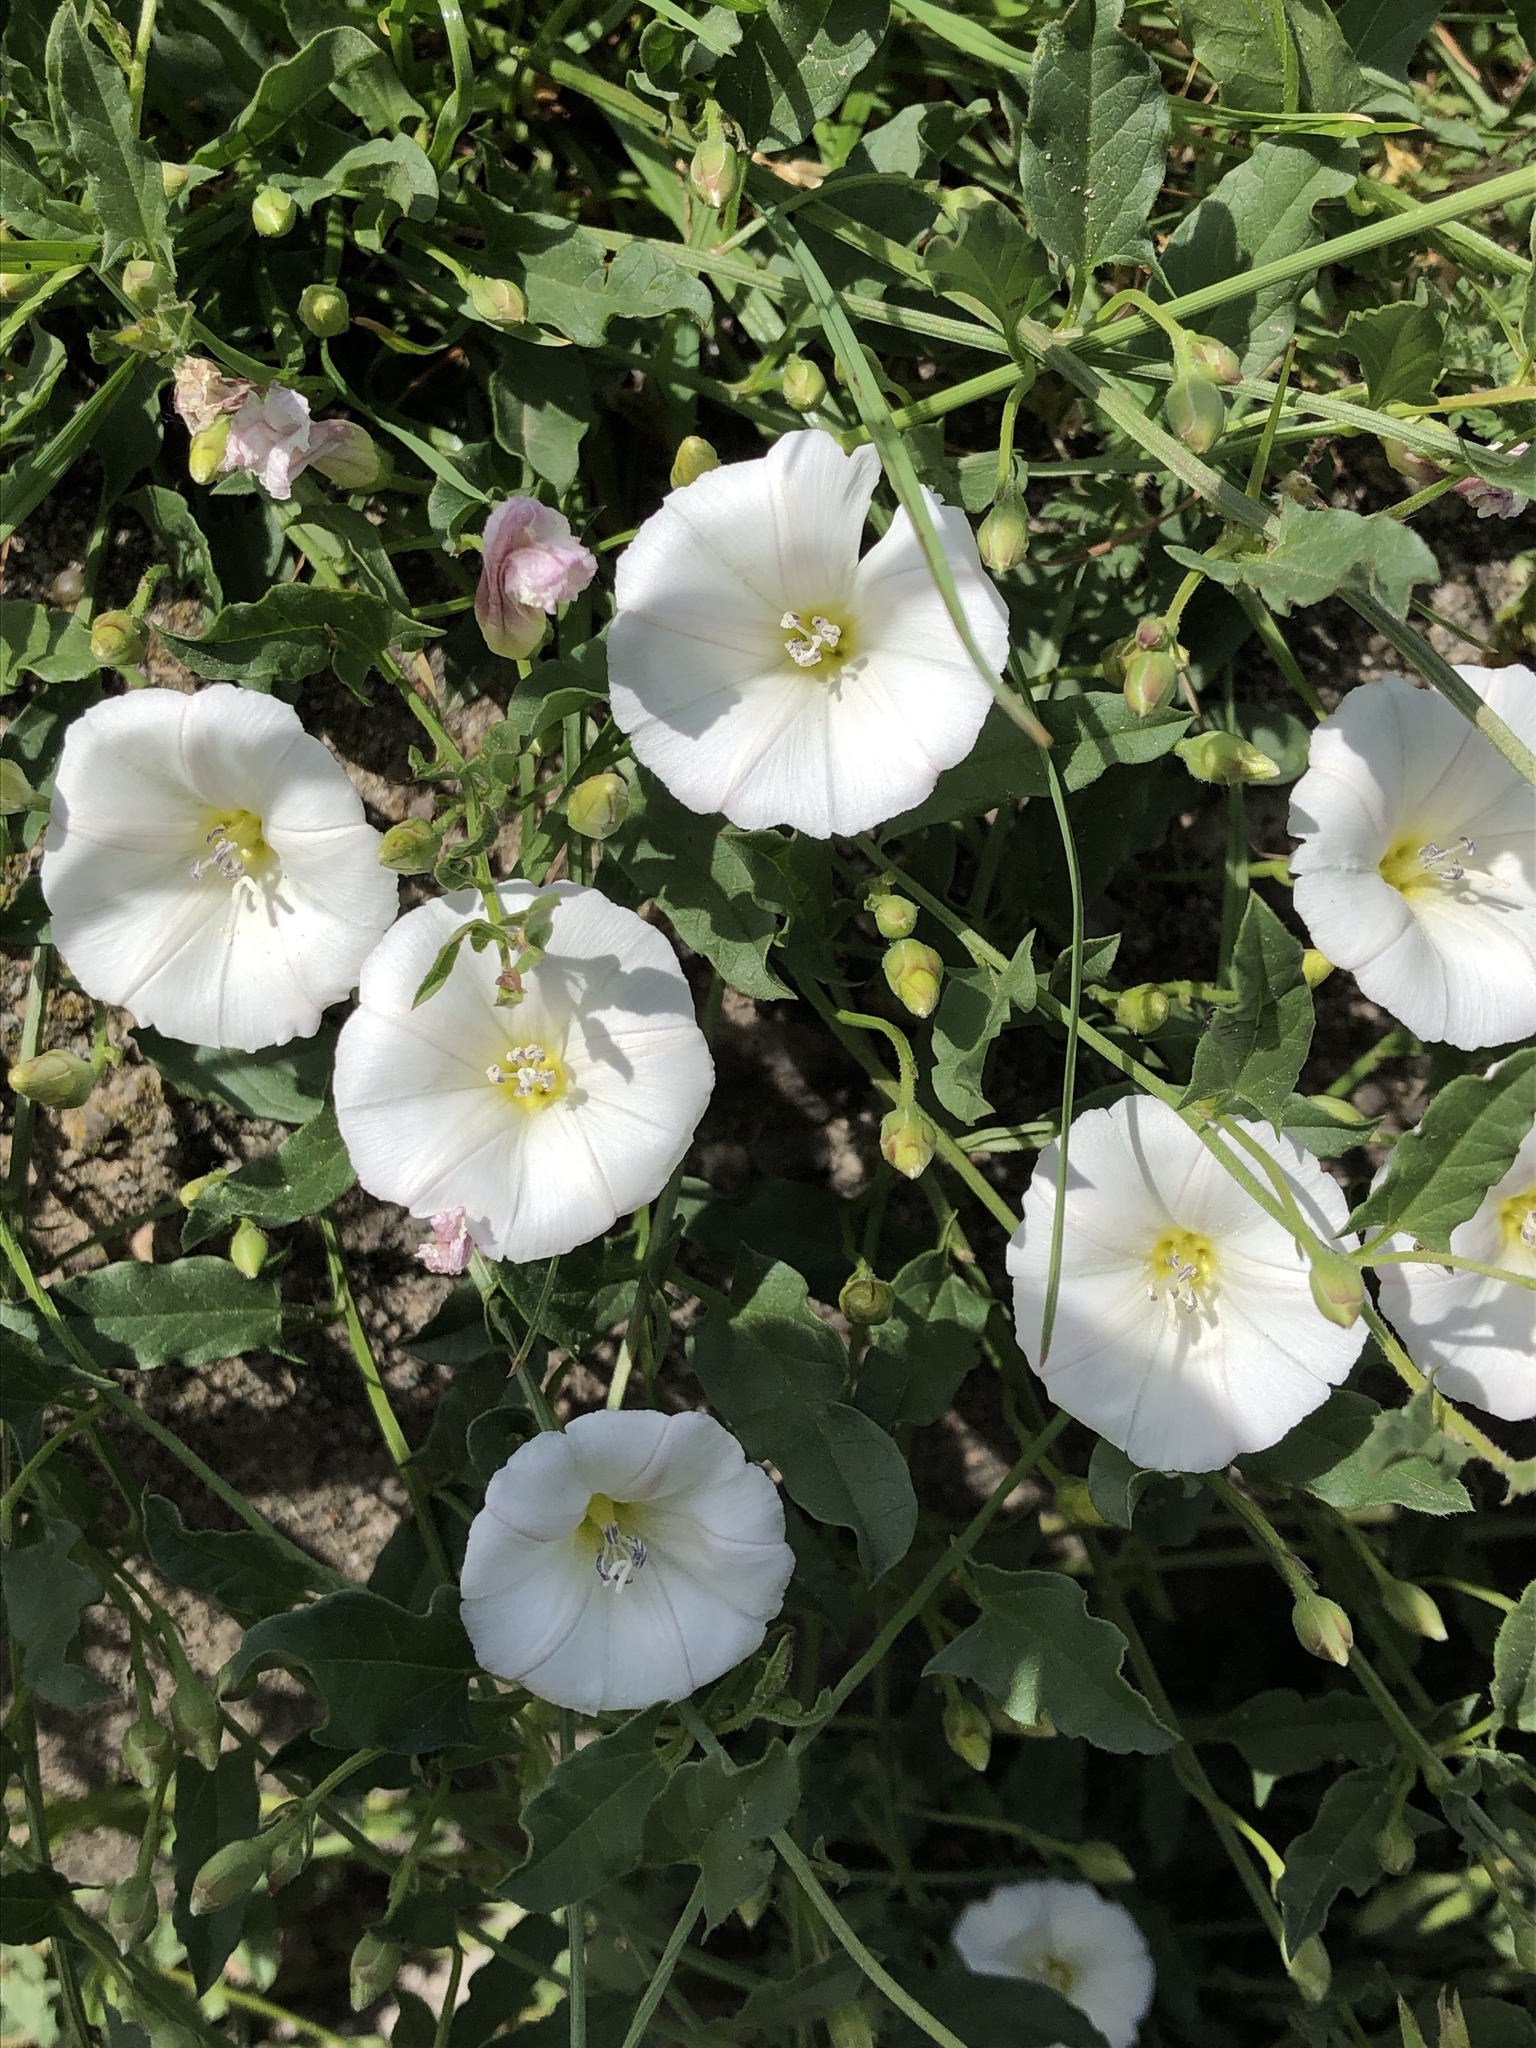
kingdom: Plantae
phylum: Tracheophyta
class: Magnoliopsida
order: Solanales
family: Convolvulaceae
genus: Convolvulus
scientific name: Convolvulus arvensis
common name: Field bindweed
